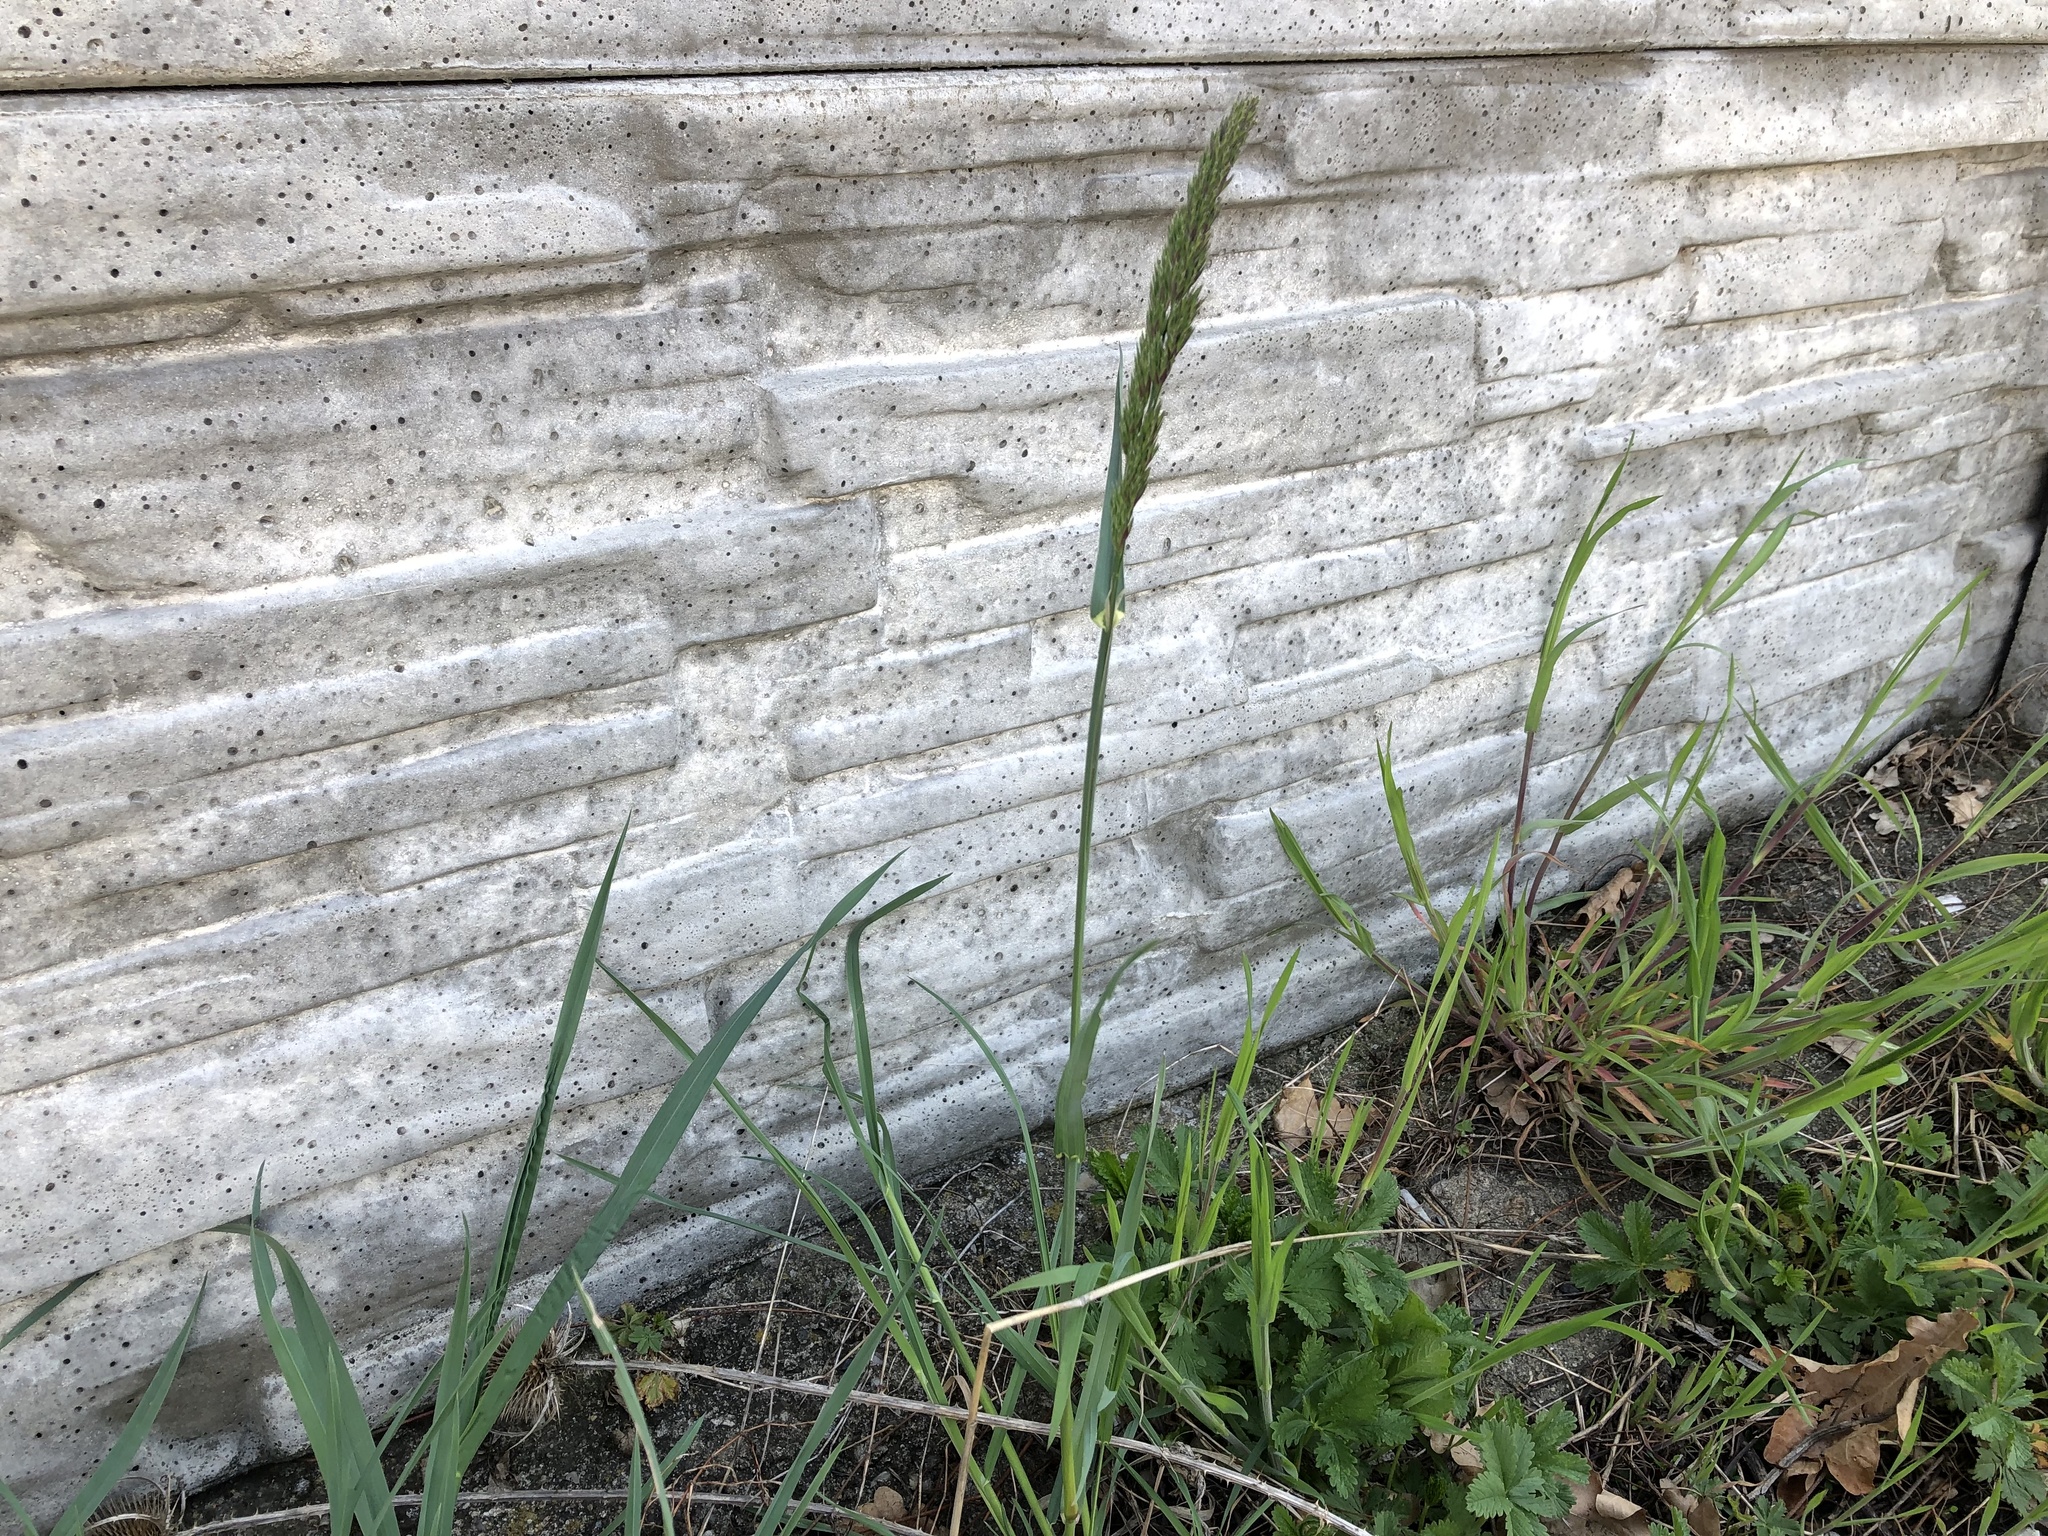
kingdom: Plantae
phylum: Tracheophyta
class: Liliopsida
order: Poales
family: Poaceae
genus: Dactylis
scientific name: Dactylis glomerata
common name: Orchardgrass
